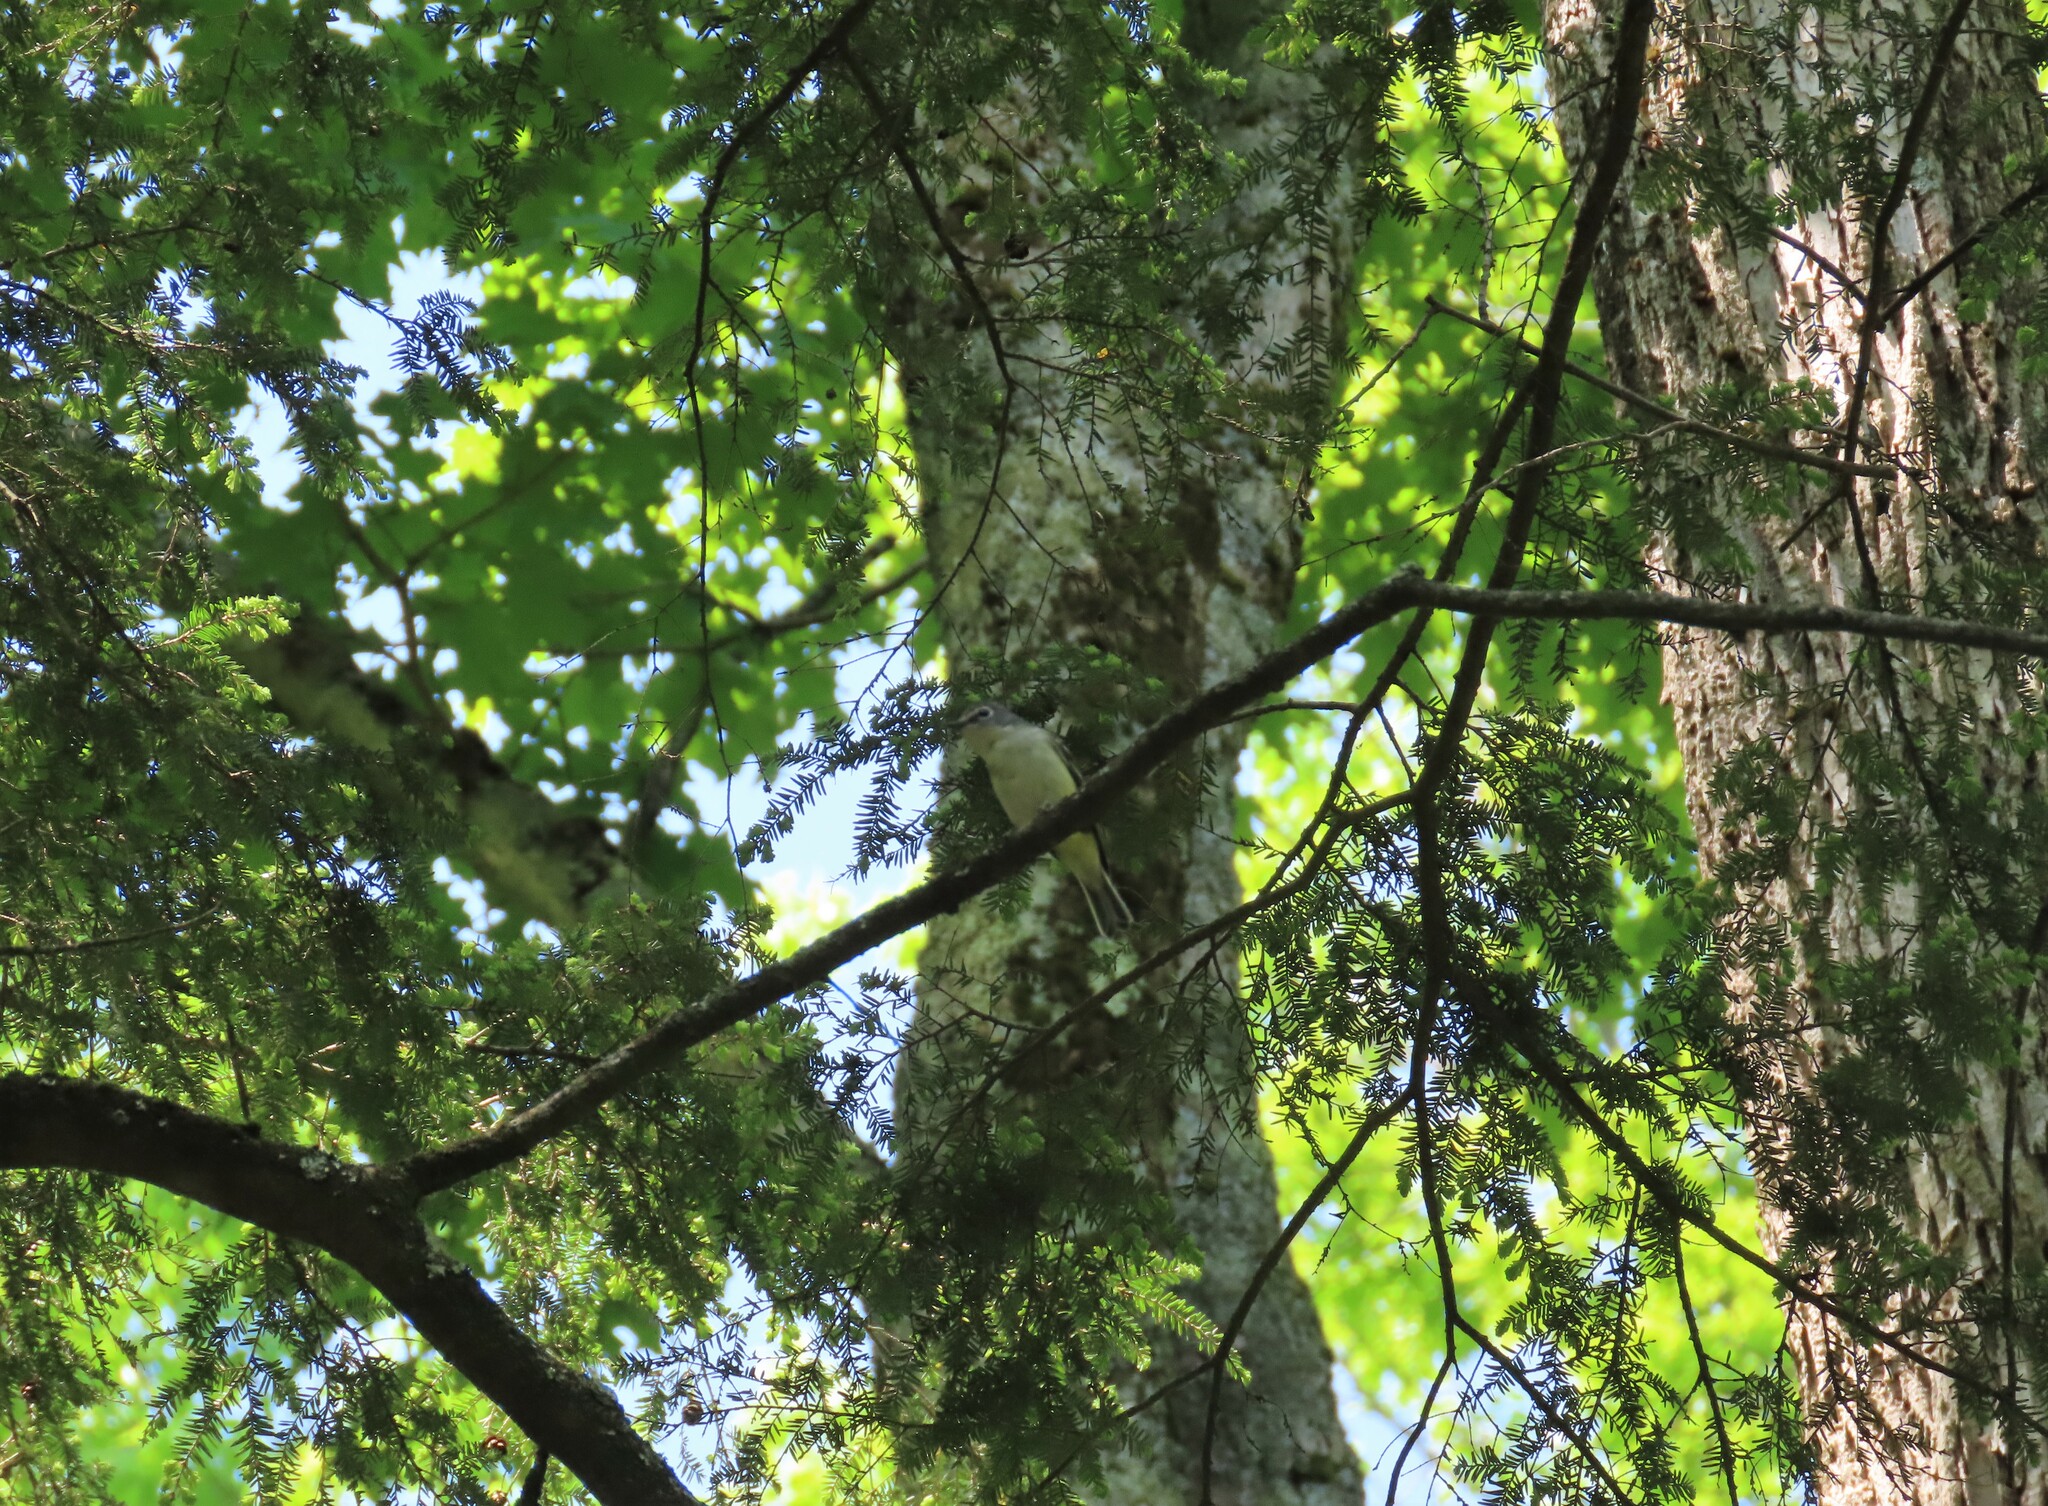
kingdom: Animalia
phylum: Chordata
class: Aves
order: Passeriformes
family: Vireonidae
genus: Vireo
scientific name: Vireo solitarius
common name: Blue-headed vireo
